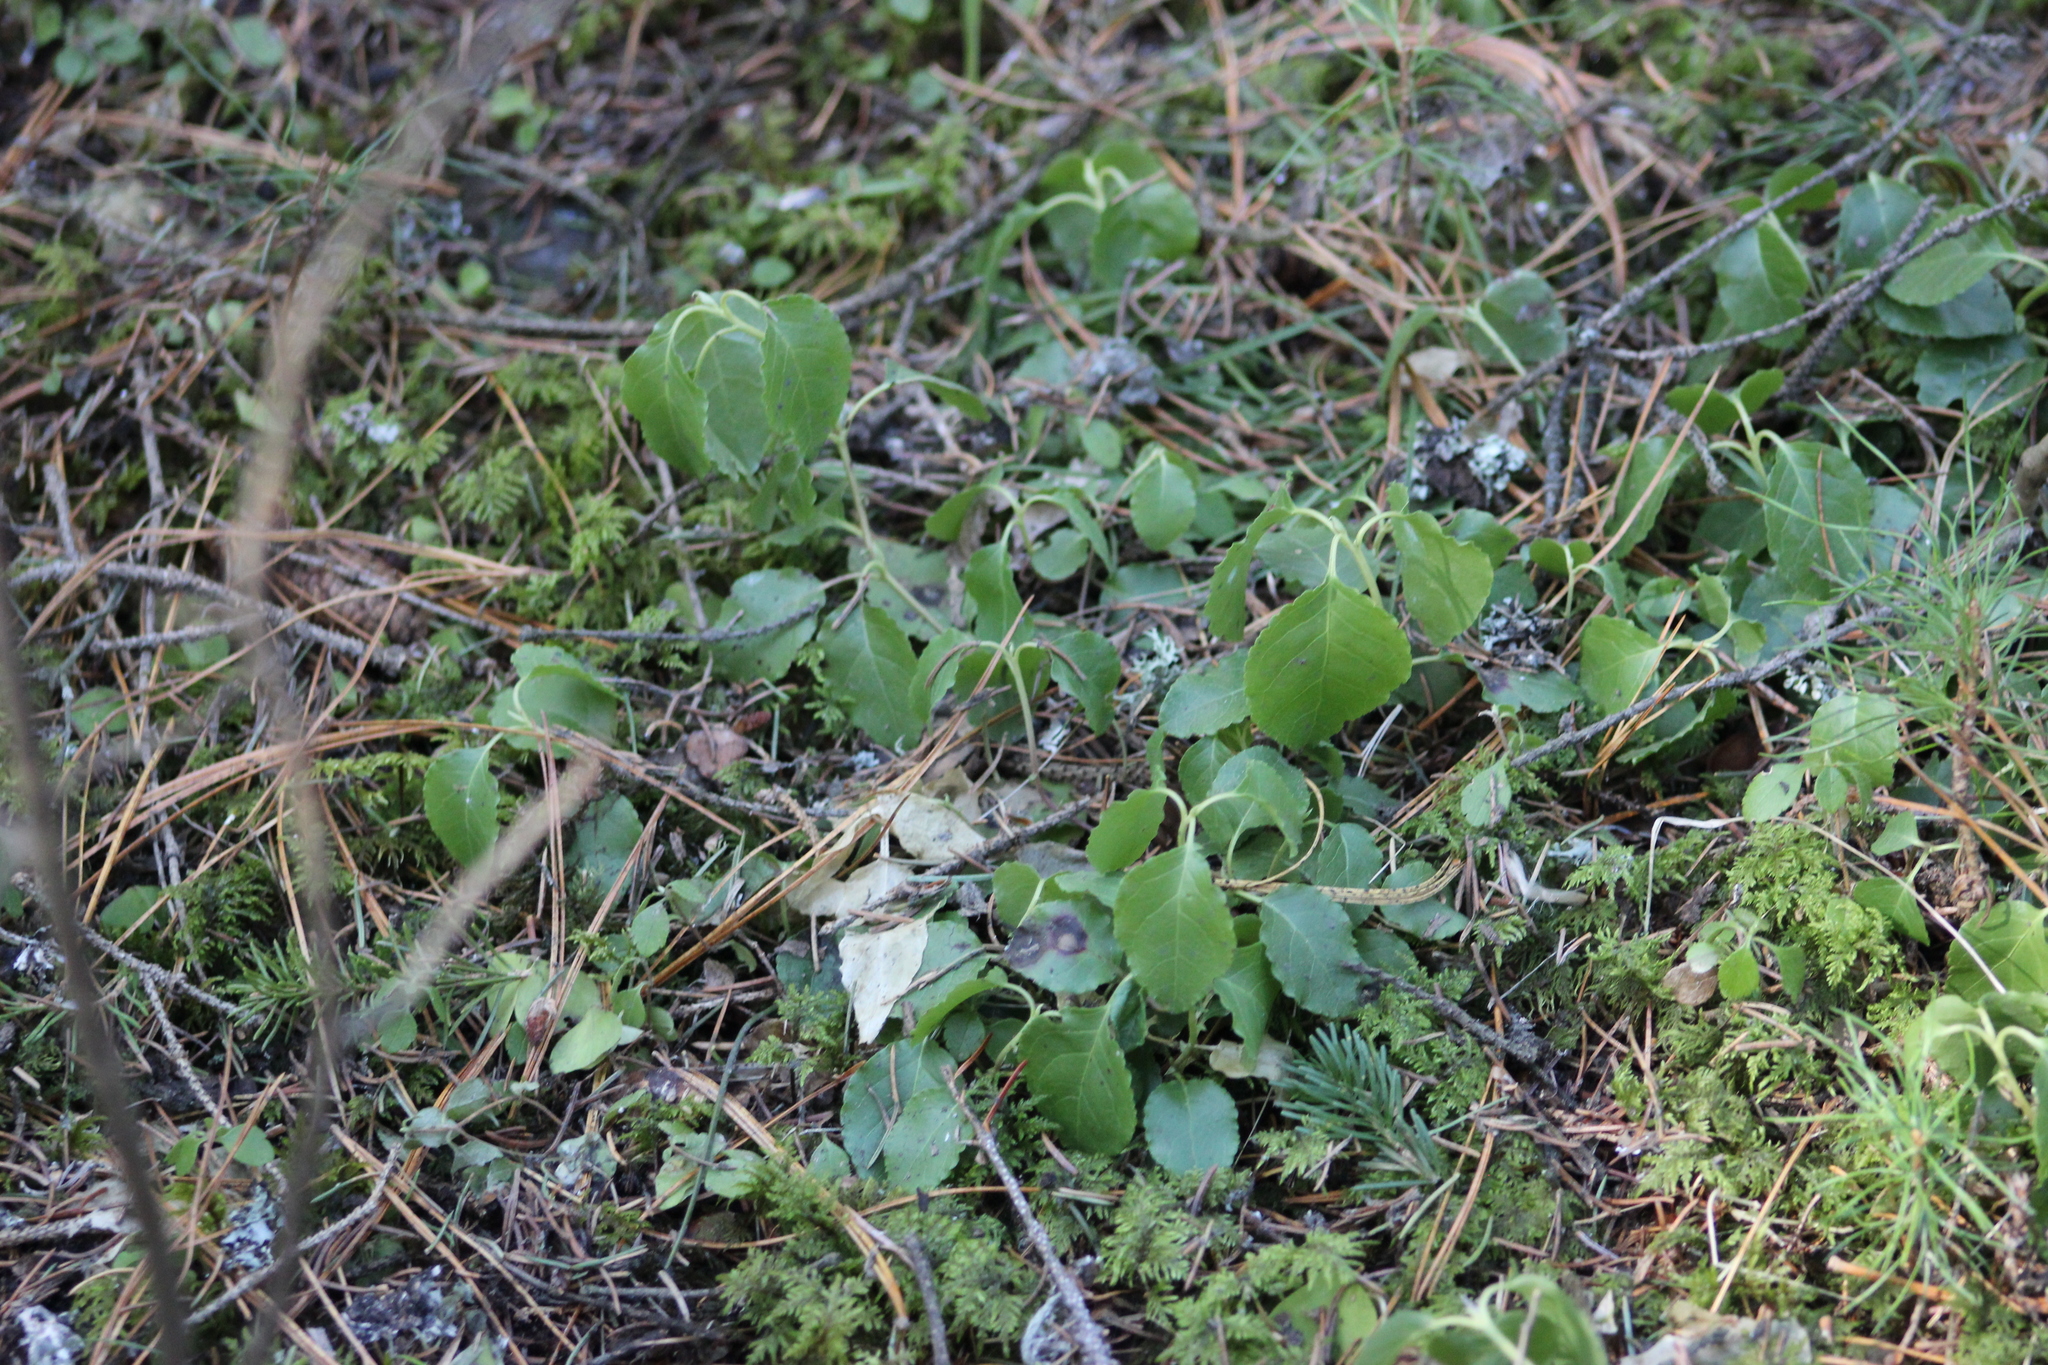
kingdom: Plantae
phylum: Tracheophyta
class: Magnoliopsida
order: Ericales
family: Ericaceae
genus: Orthilia
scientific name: Orthilia secunda
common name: One-sided orthilia
